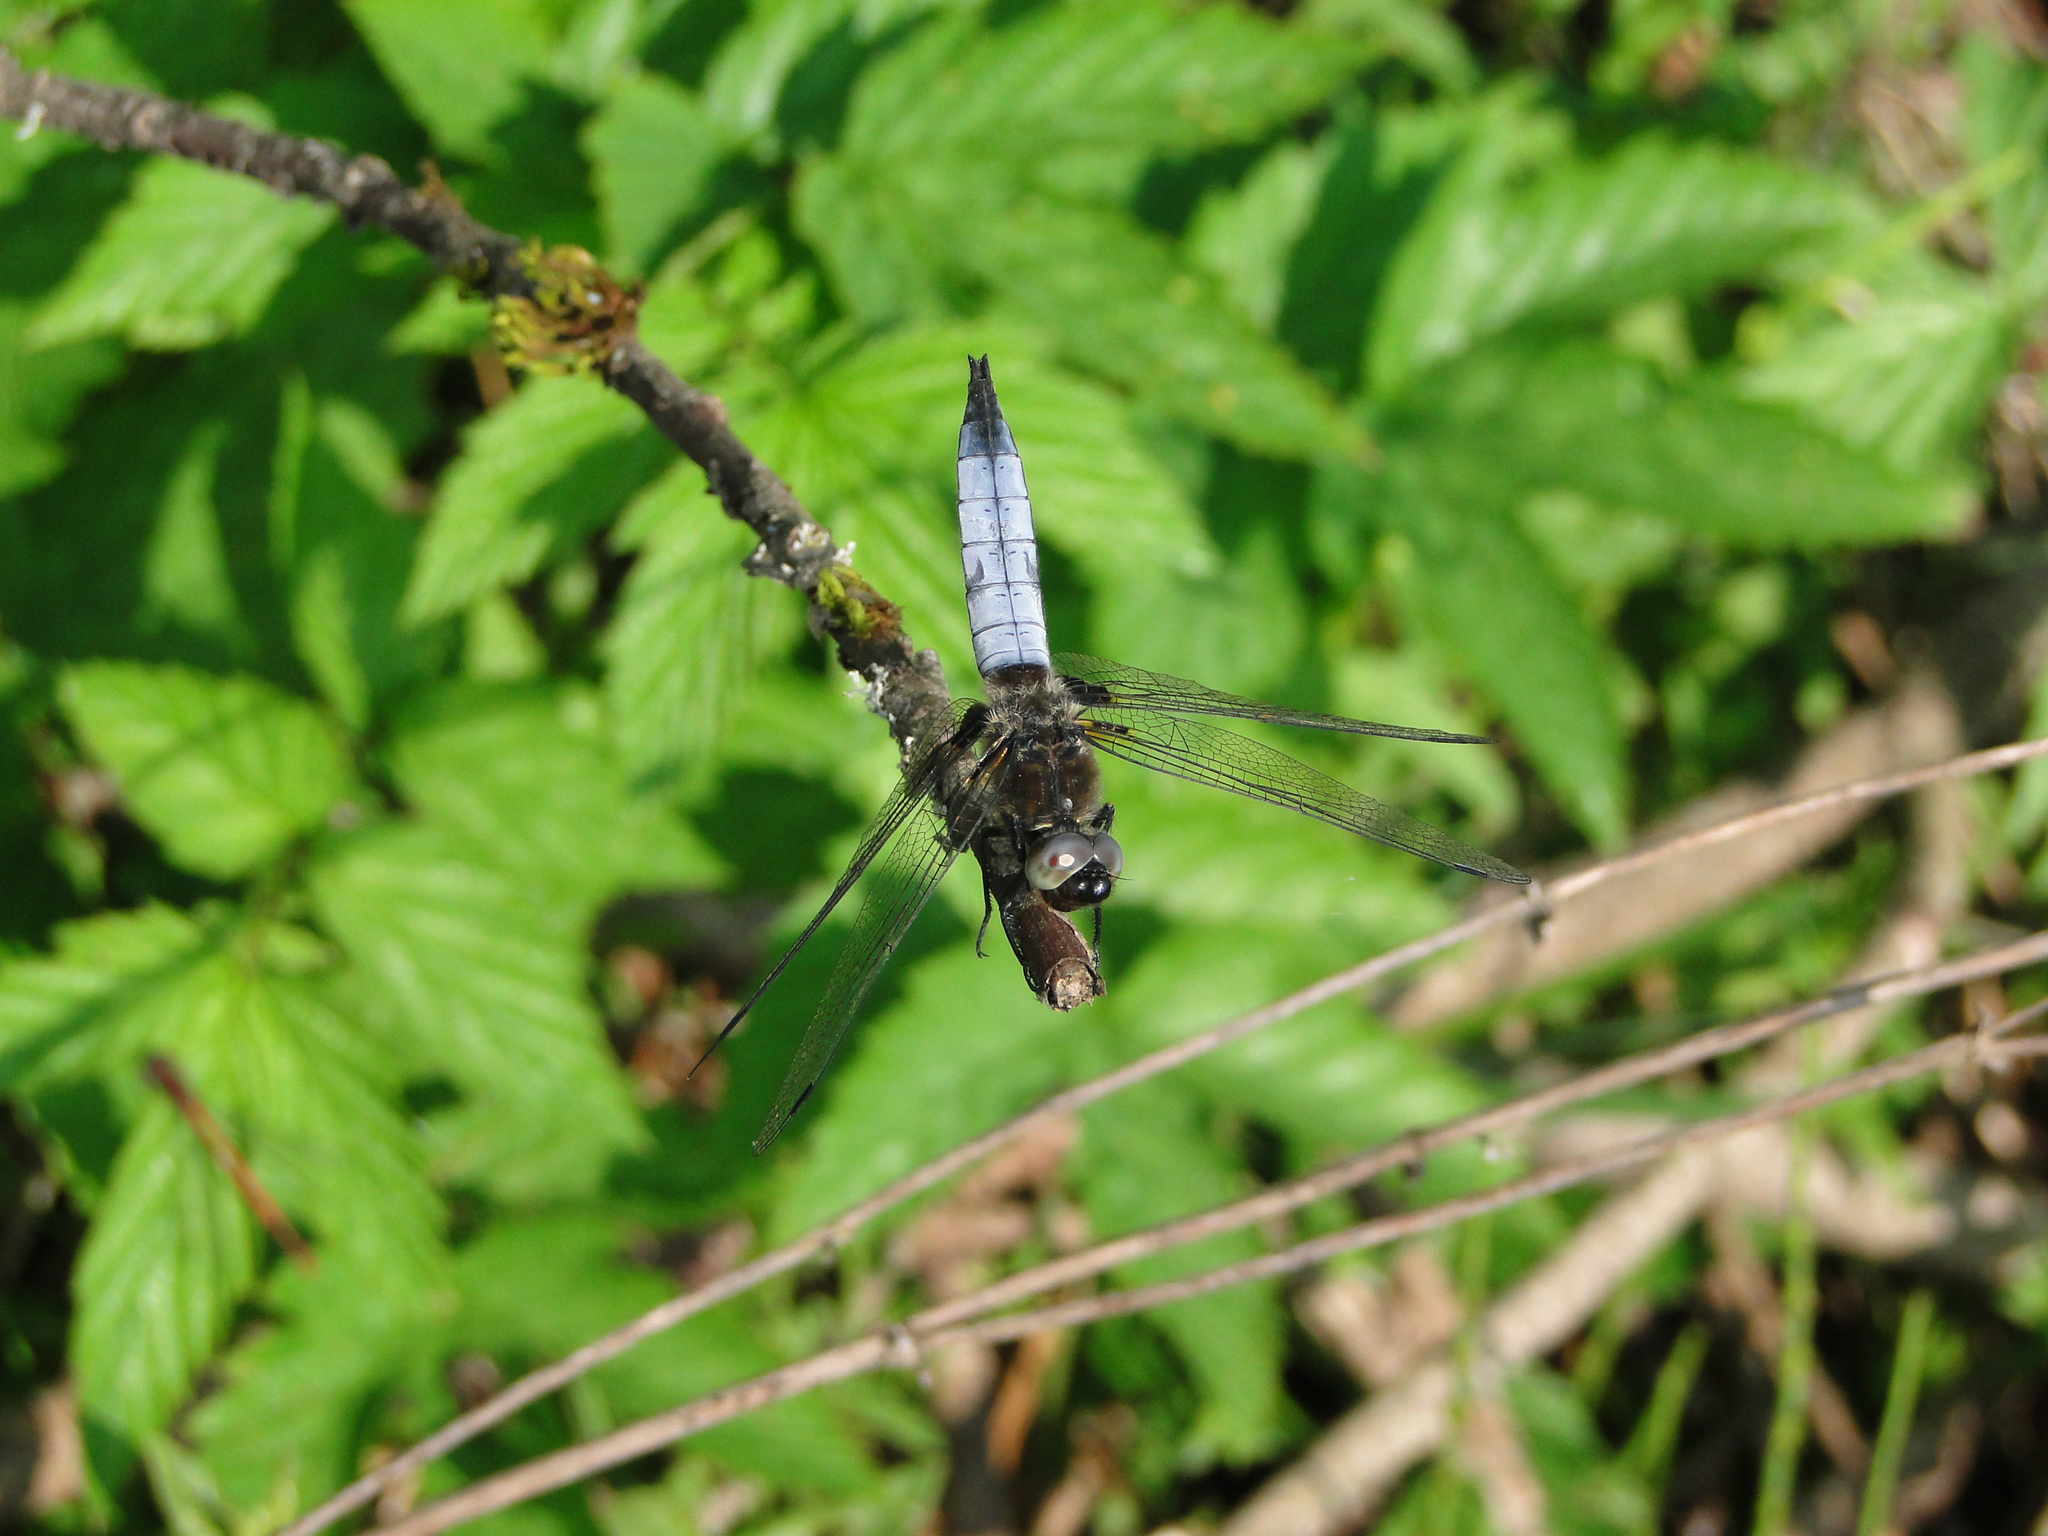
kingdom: Animalia
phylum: Arthropoda
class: Insecta
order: Odonata
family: Libellulidae
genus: Libellula
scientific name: Libellula fulva
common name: Blue chaser
